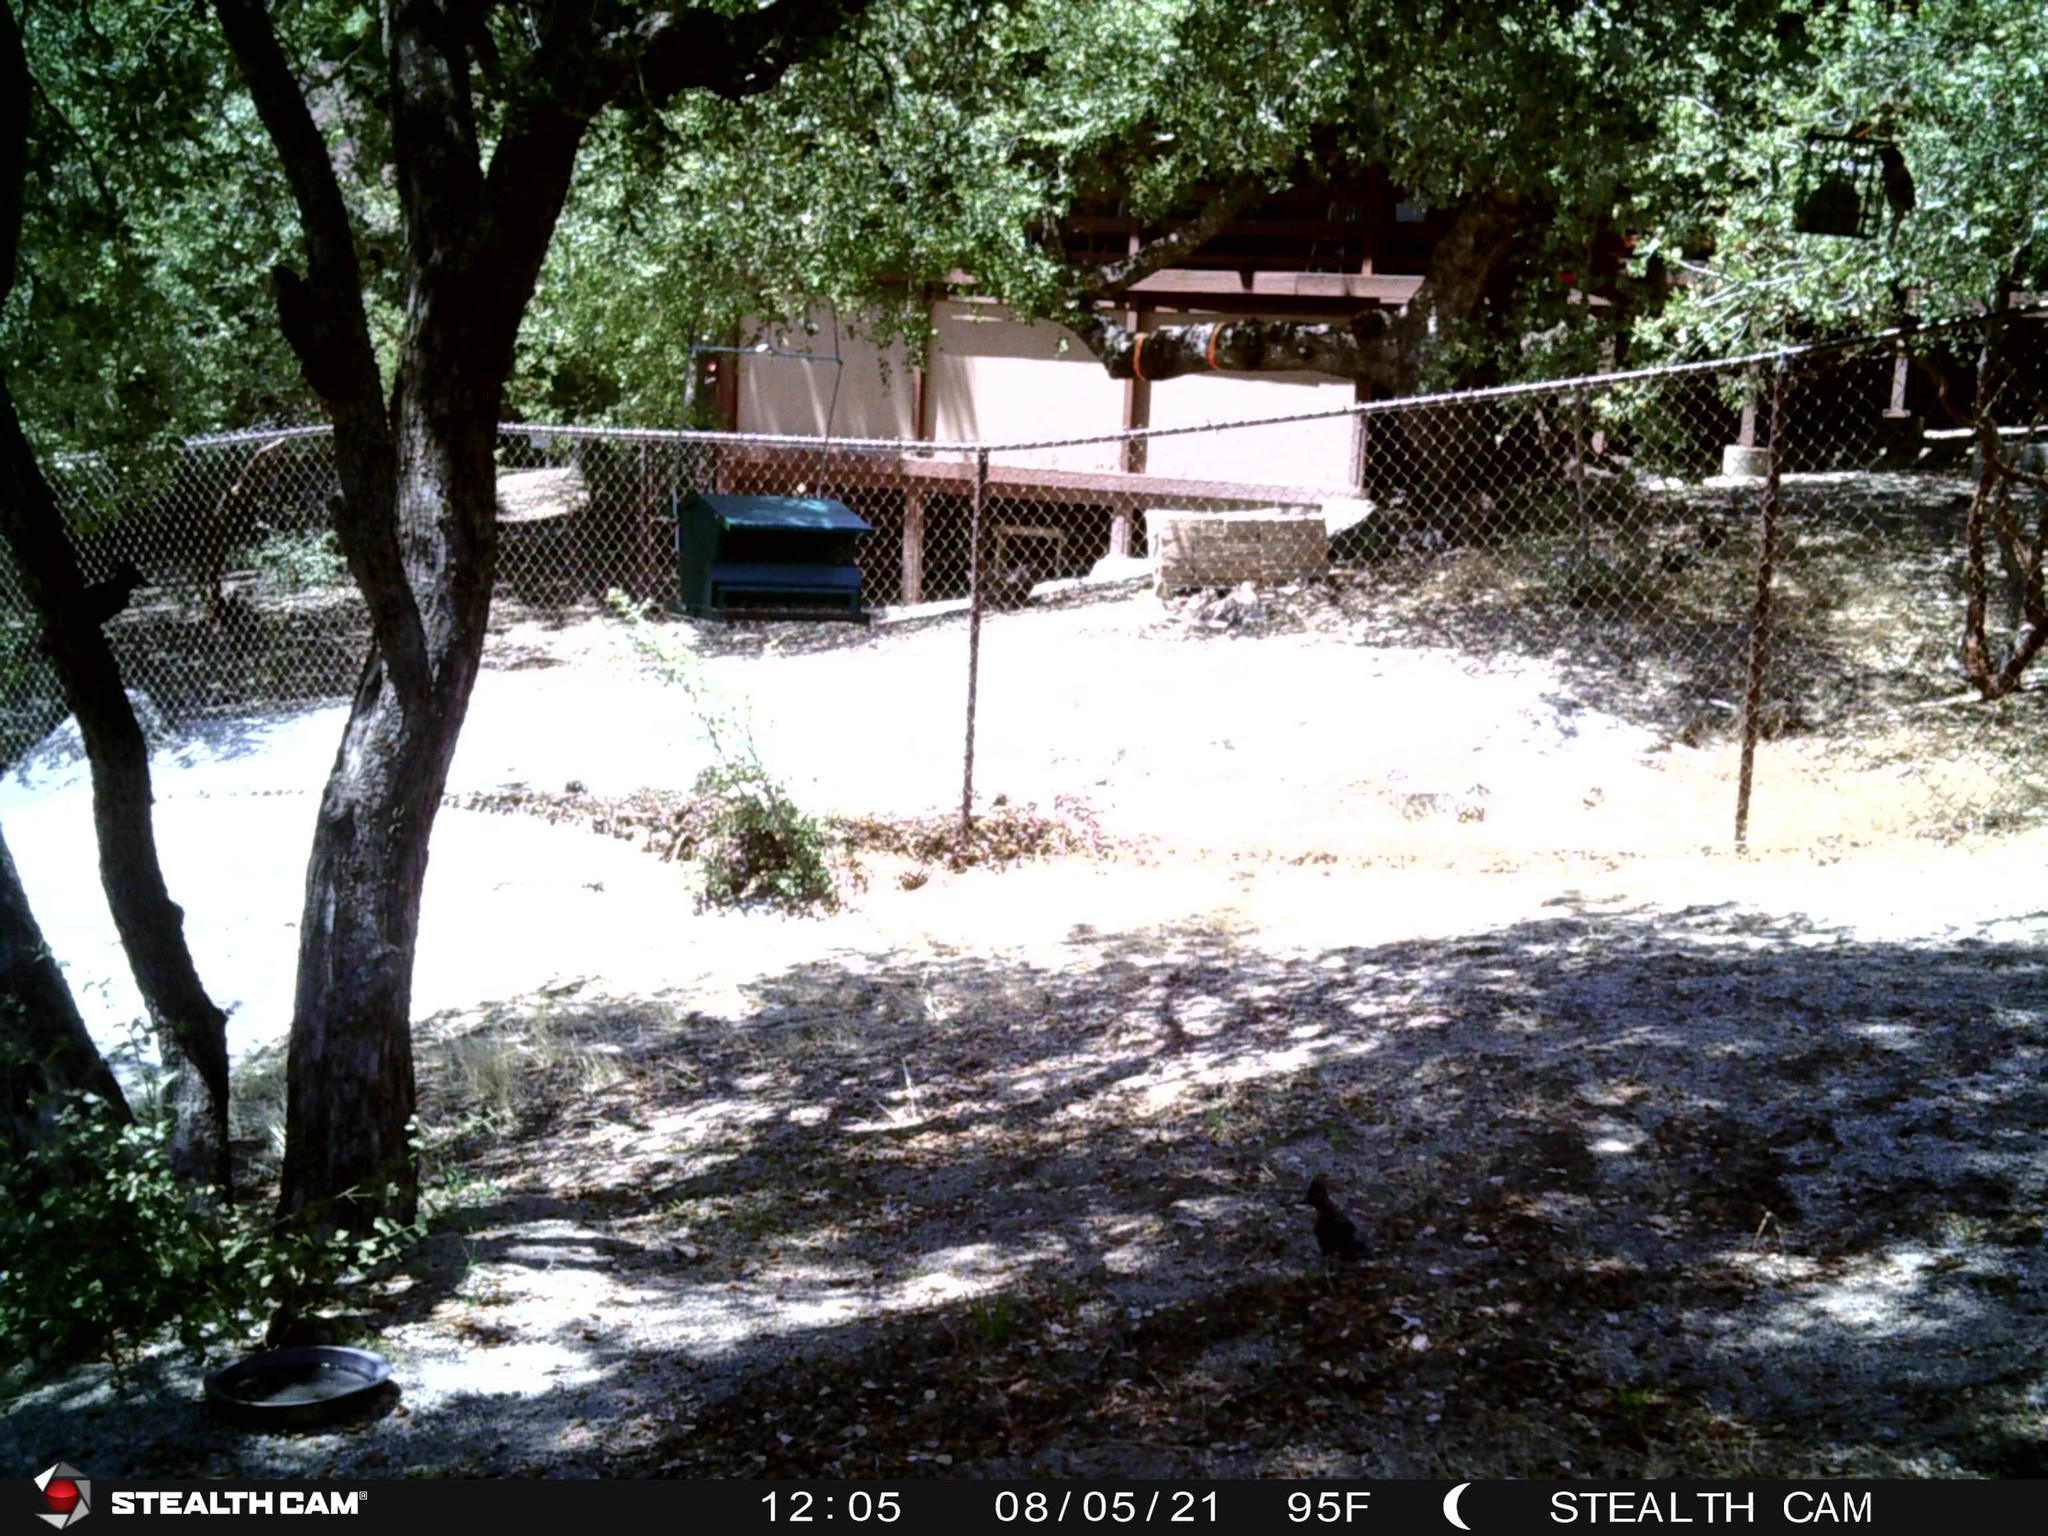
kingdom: Animalia
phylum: Chordata
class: Aves
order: Passeriformes
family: Corvidae
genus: Cyanocitta
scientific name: Cyanocitta stelleri
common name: Steller's jay
